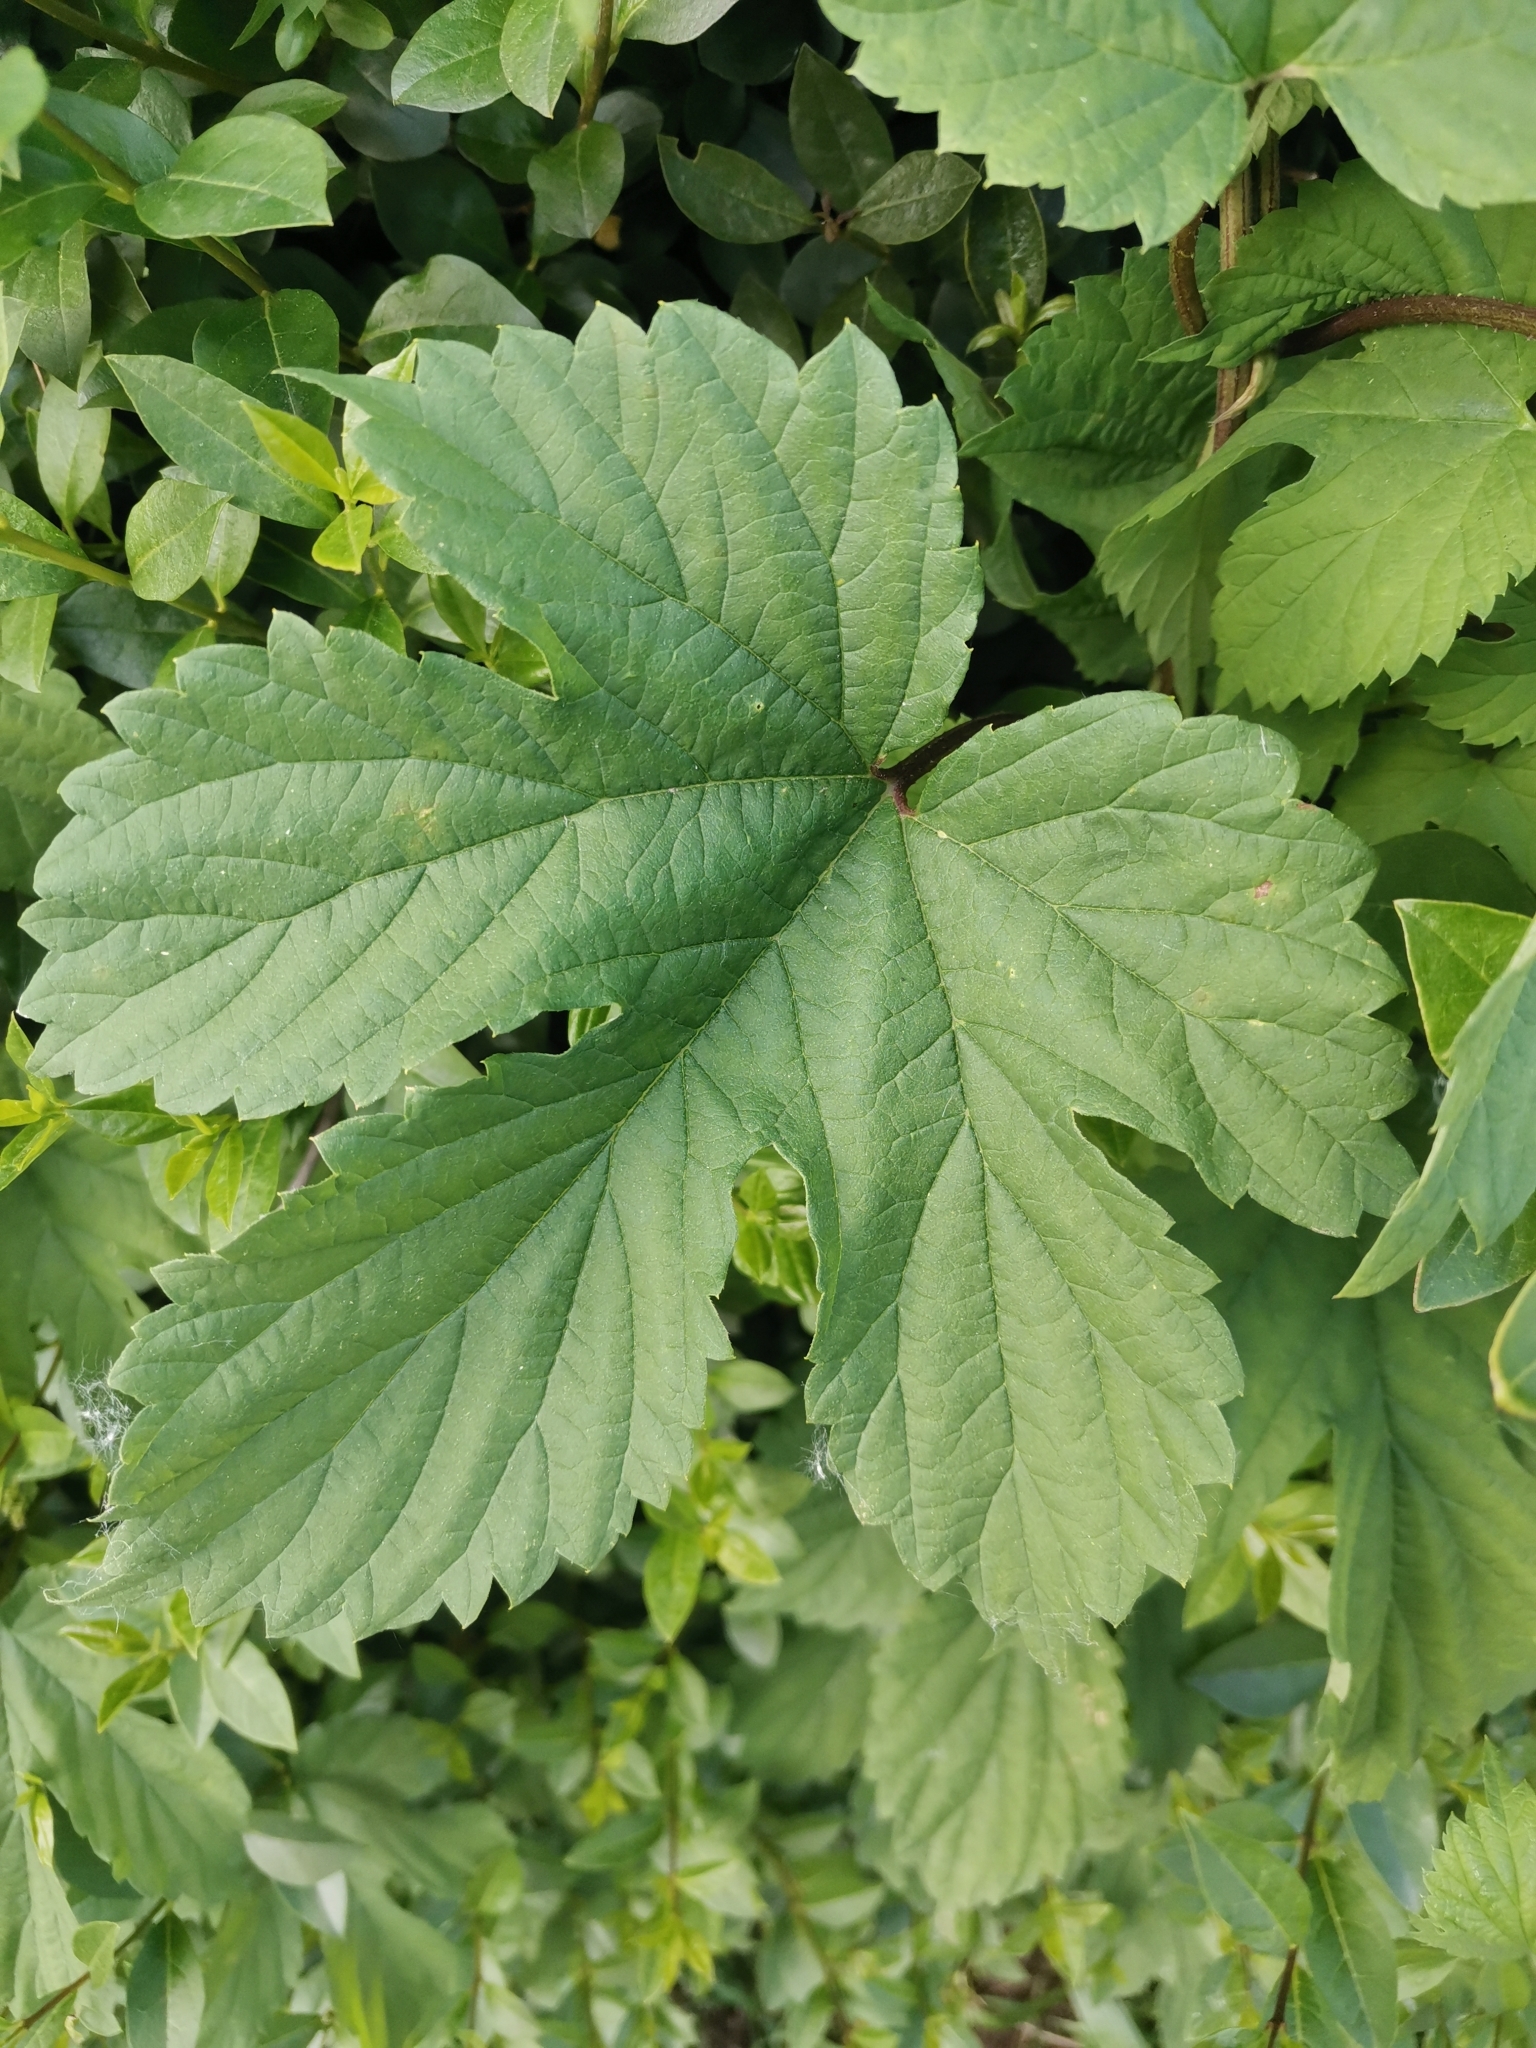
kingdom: Plantae
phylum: Tracheophyta
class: Magnoliopsida
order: Rosales
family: Cannabaceae
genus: Humulus
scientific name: Humulus lupulus
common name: Hop
